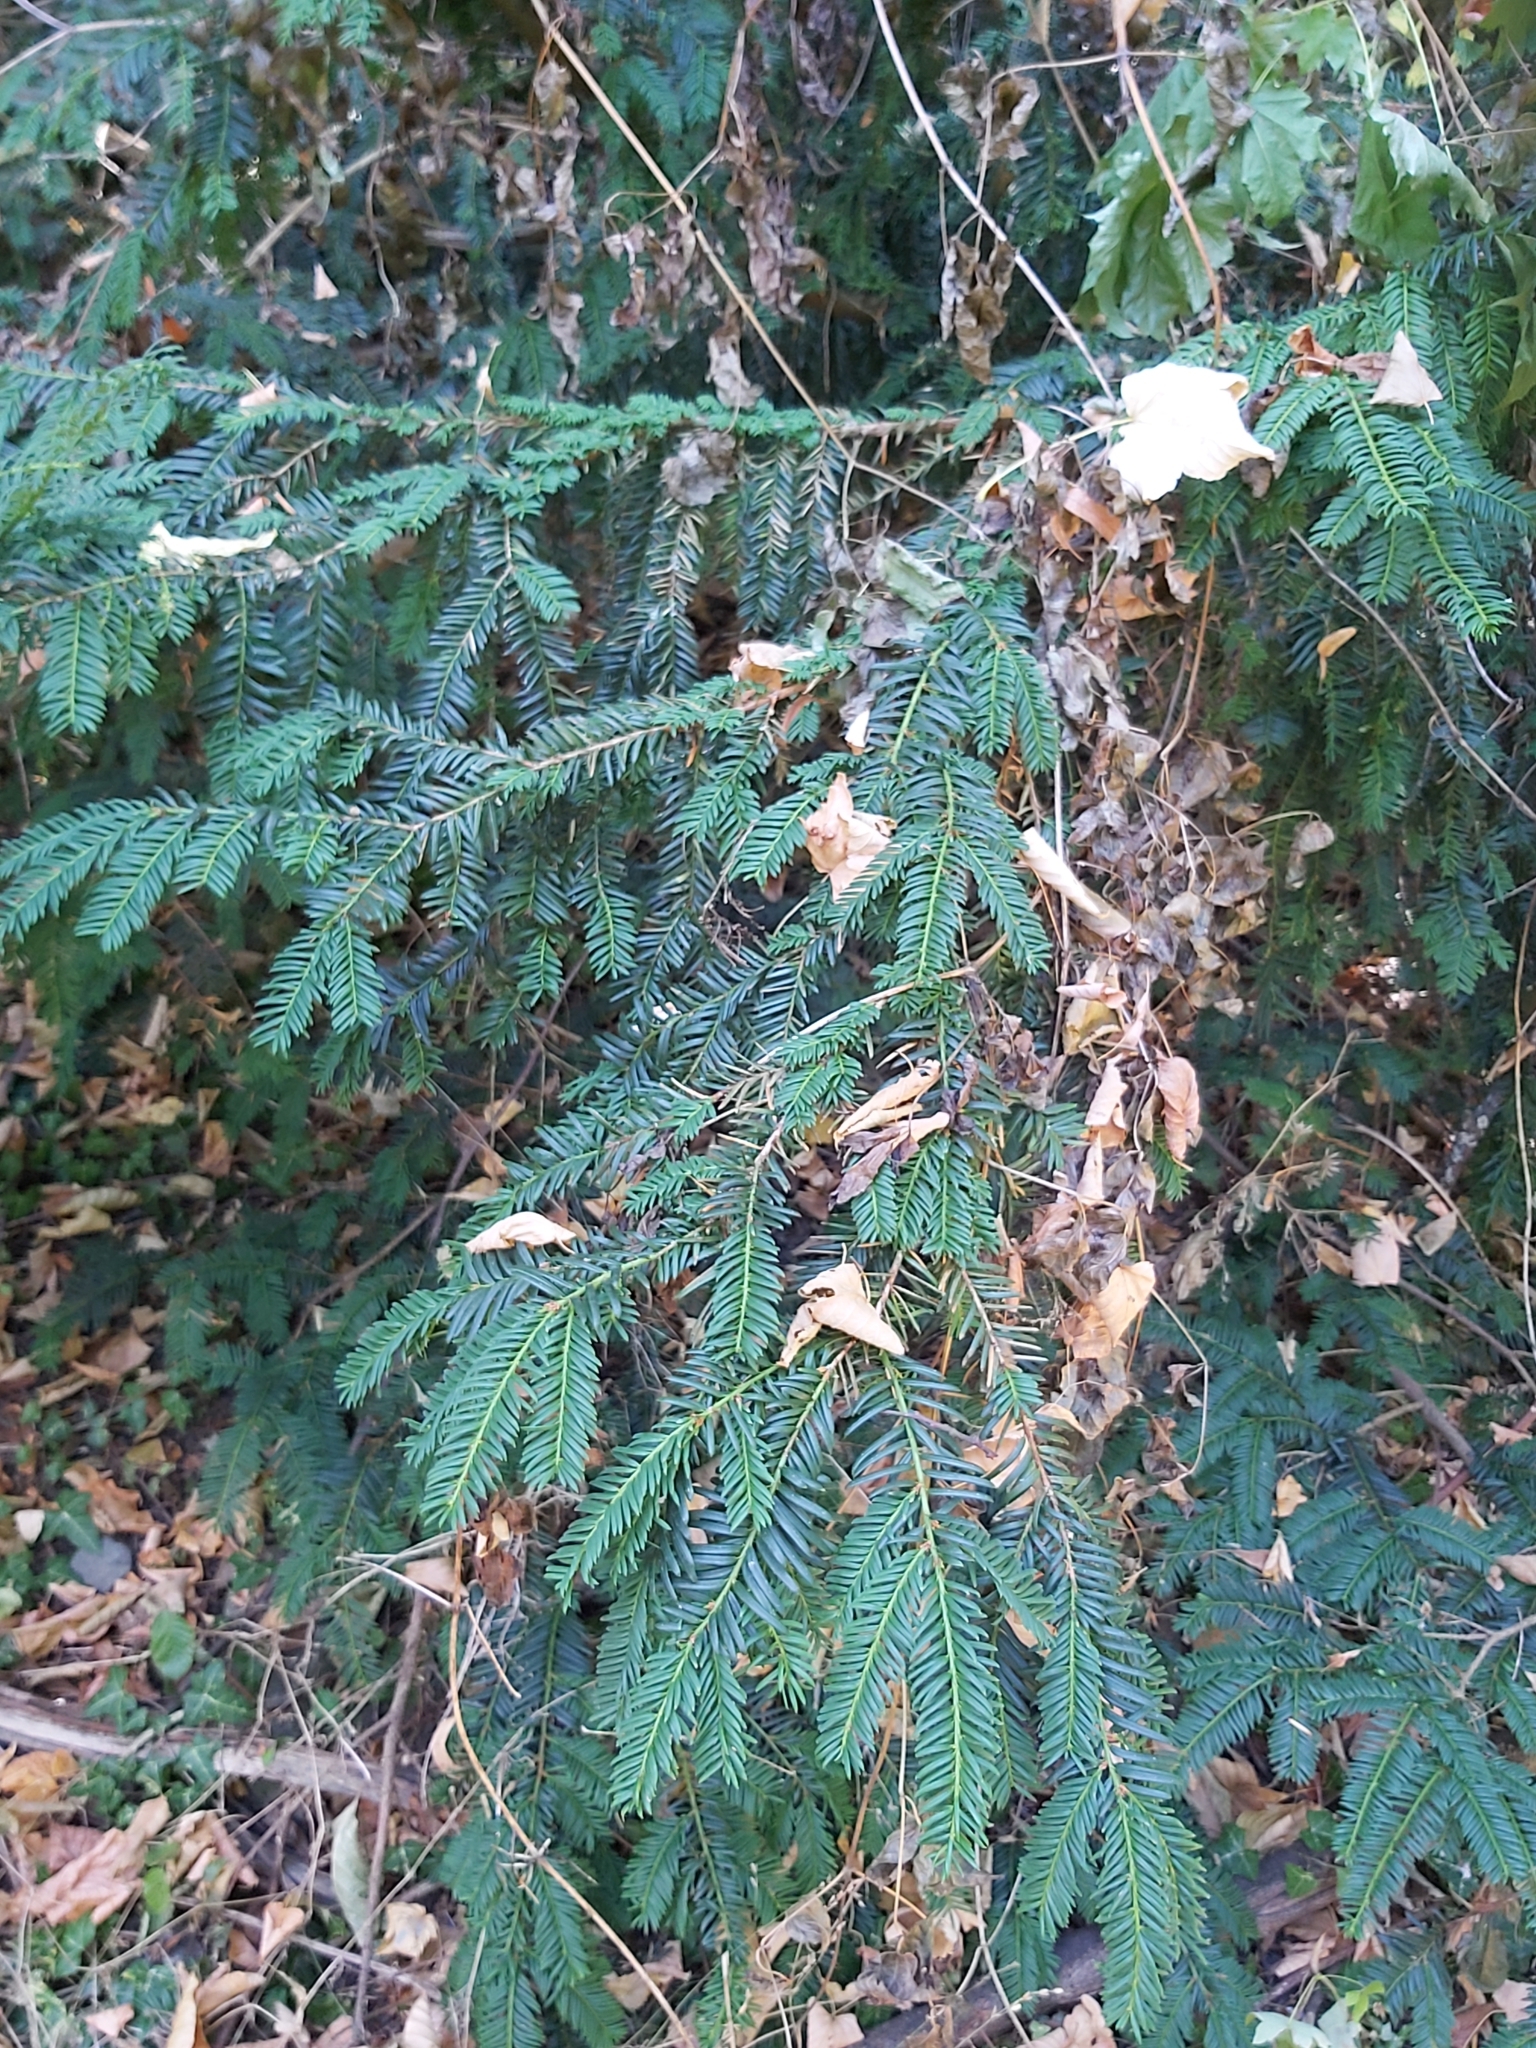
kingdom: Plantae
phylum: Tracheophyta
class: Pinopsida
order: Pinales
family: Taxaceae
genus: Taxus
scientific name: Taxus baccata
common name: Yew
